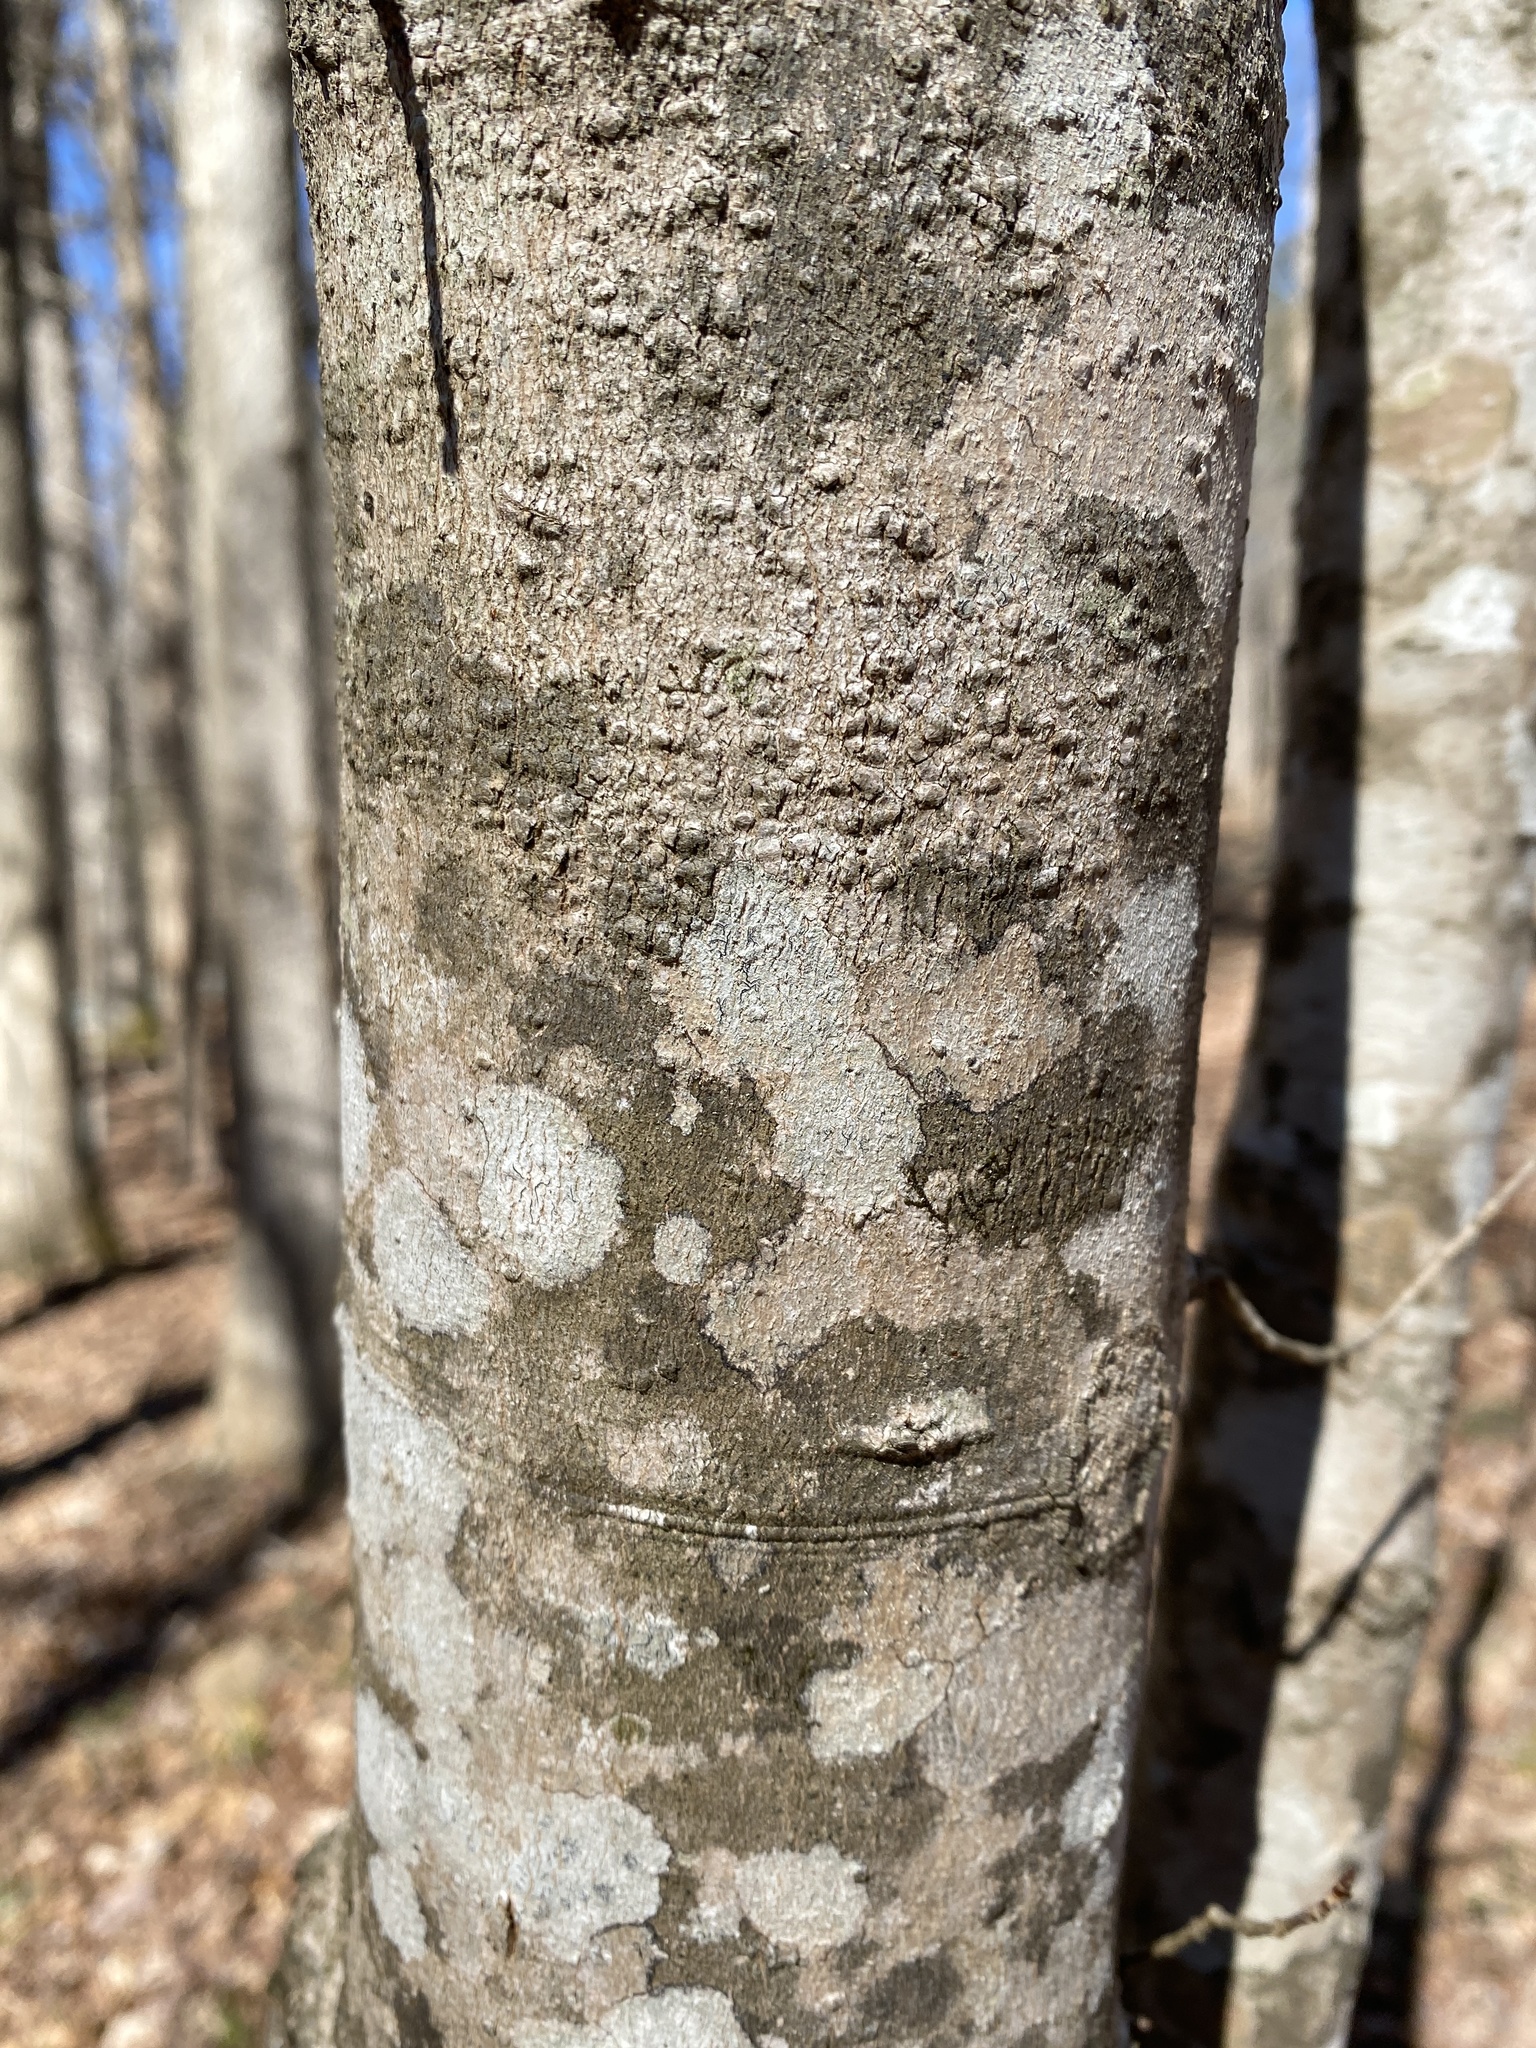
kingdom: Plantae
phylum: Tracheophyta
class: Magnoliopsida
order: Sapindales
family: Sapindaceae
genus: Acer
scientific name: Acer rubrum
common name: Red maple
